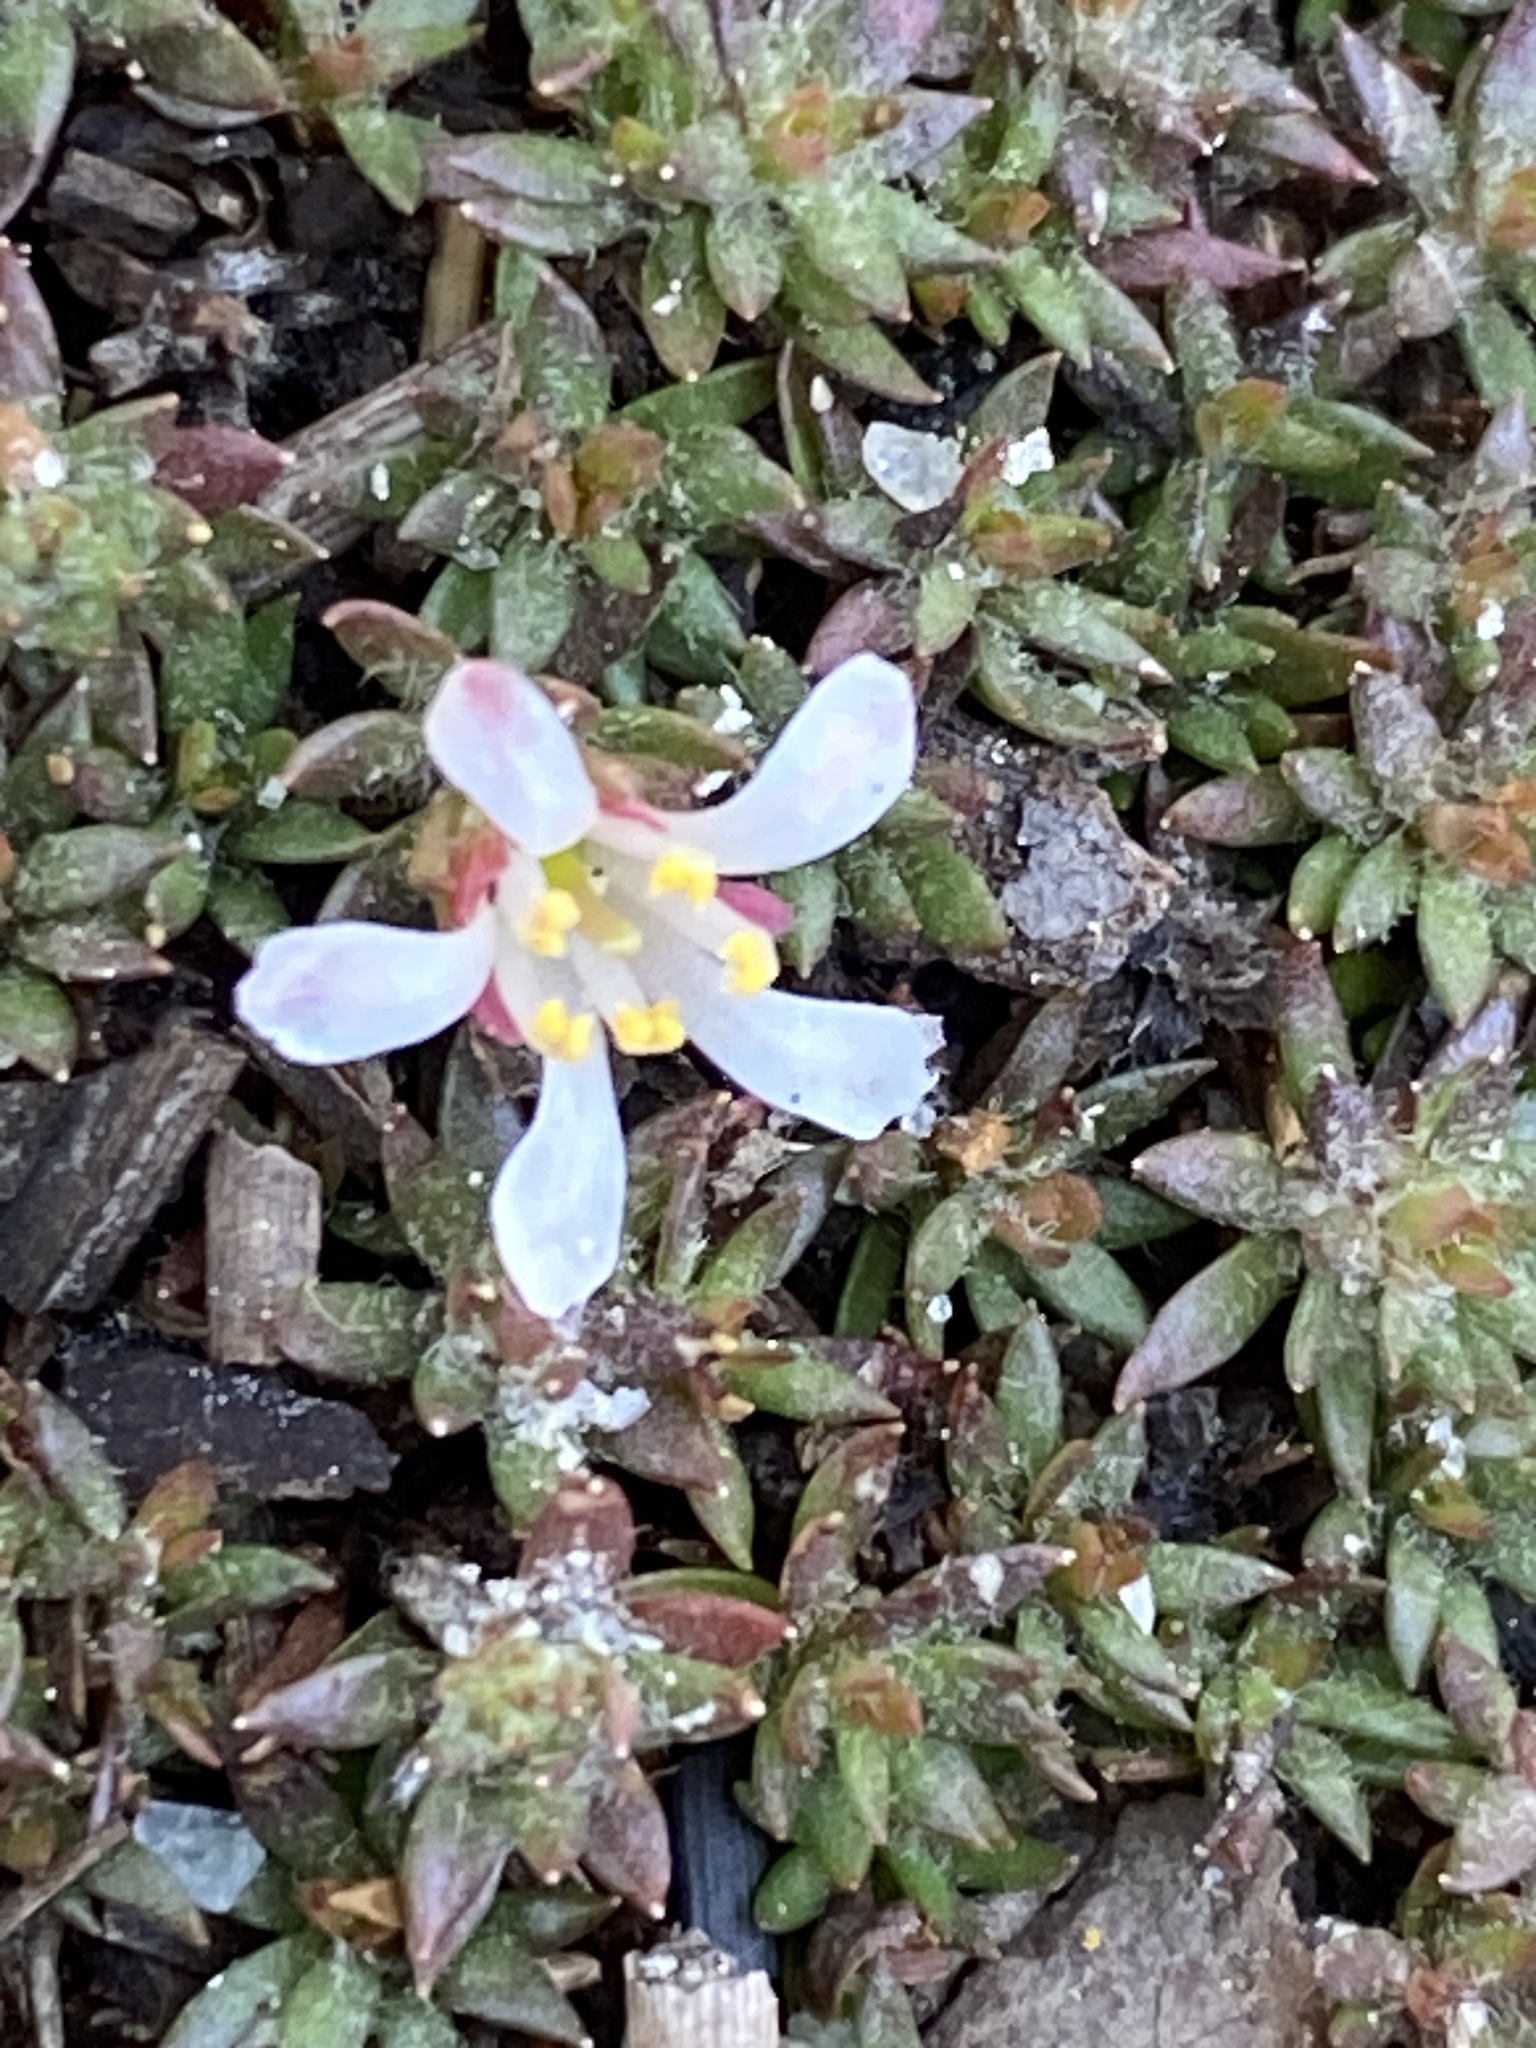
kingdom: Plantae
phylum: Tracheophyta
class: Magnoliopsida
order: Ericales
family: Diapensiaceae
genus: Pyxidanthera
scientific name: Pyxidanthera brevifolia
